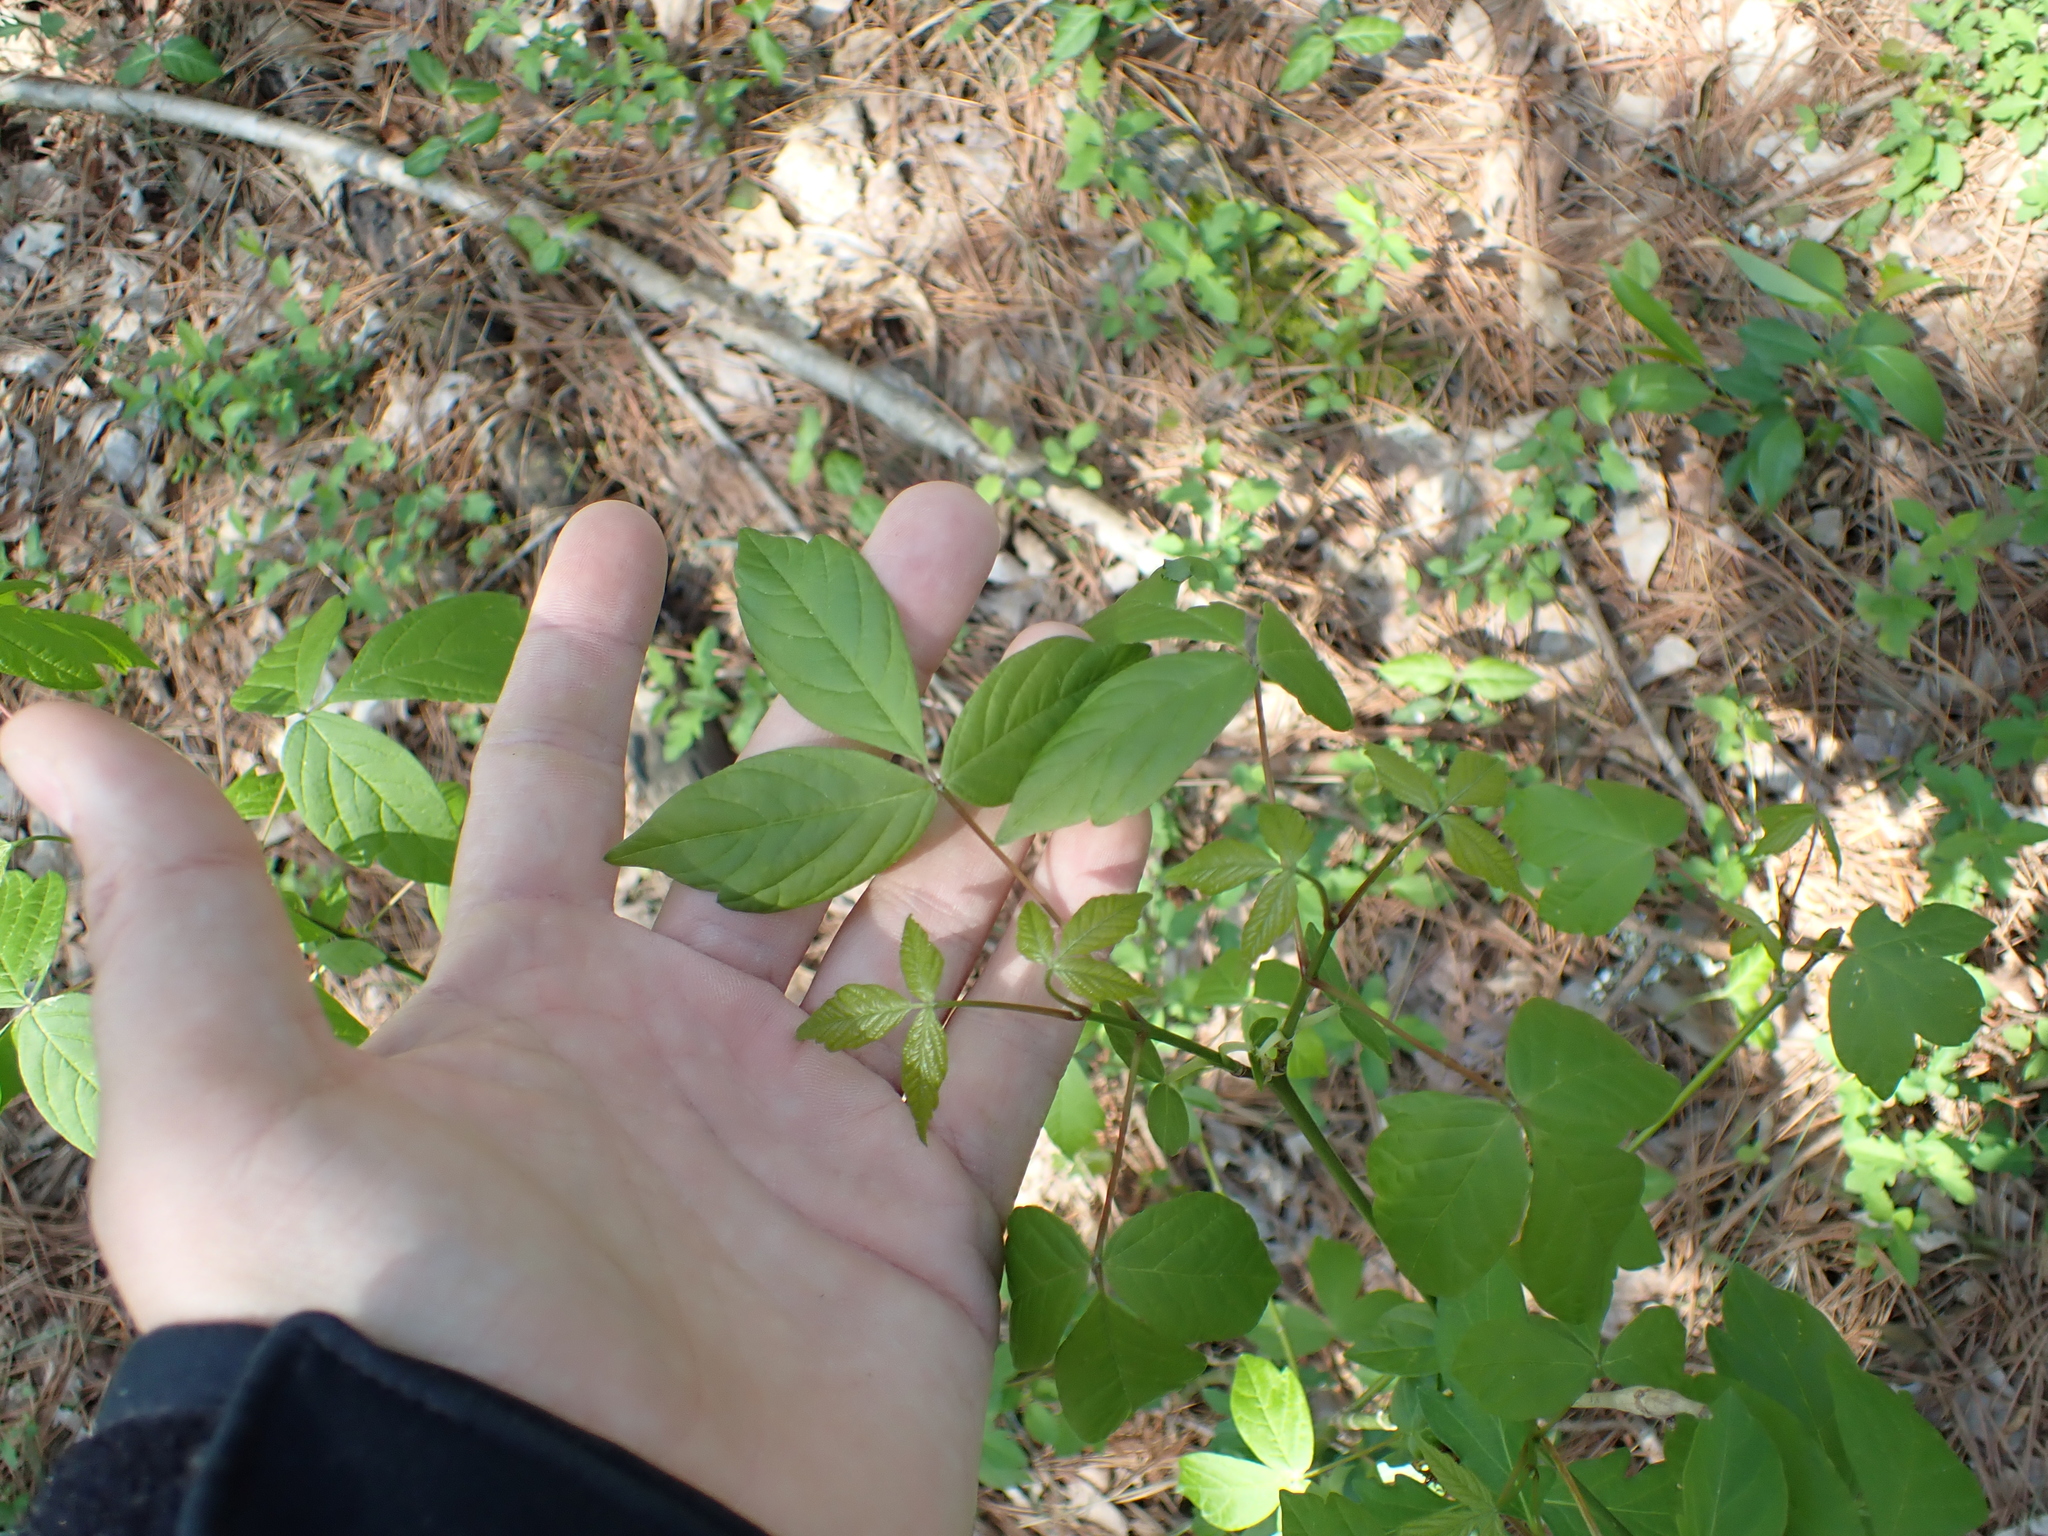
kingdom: Plantae
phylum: Tracheophyta
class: Magnoliopsida
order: Sapindales
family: Sapindaceae
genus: Acer
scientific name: Acer negundo
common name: Ashleaf maple
